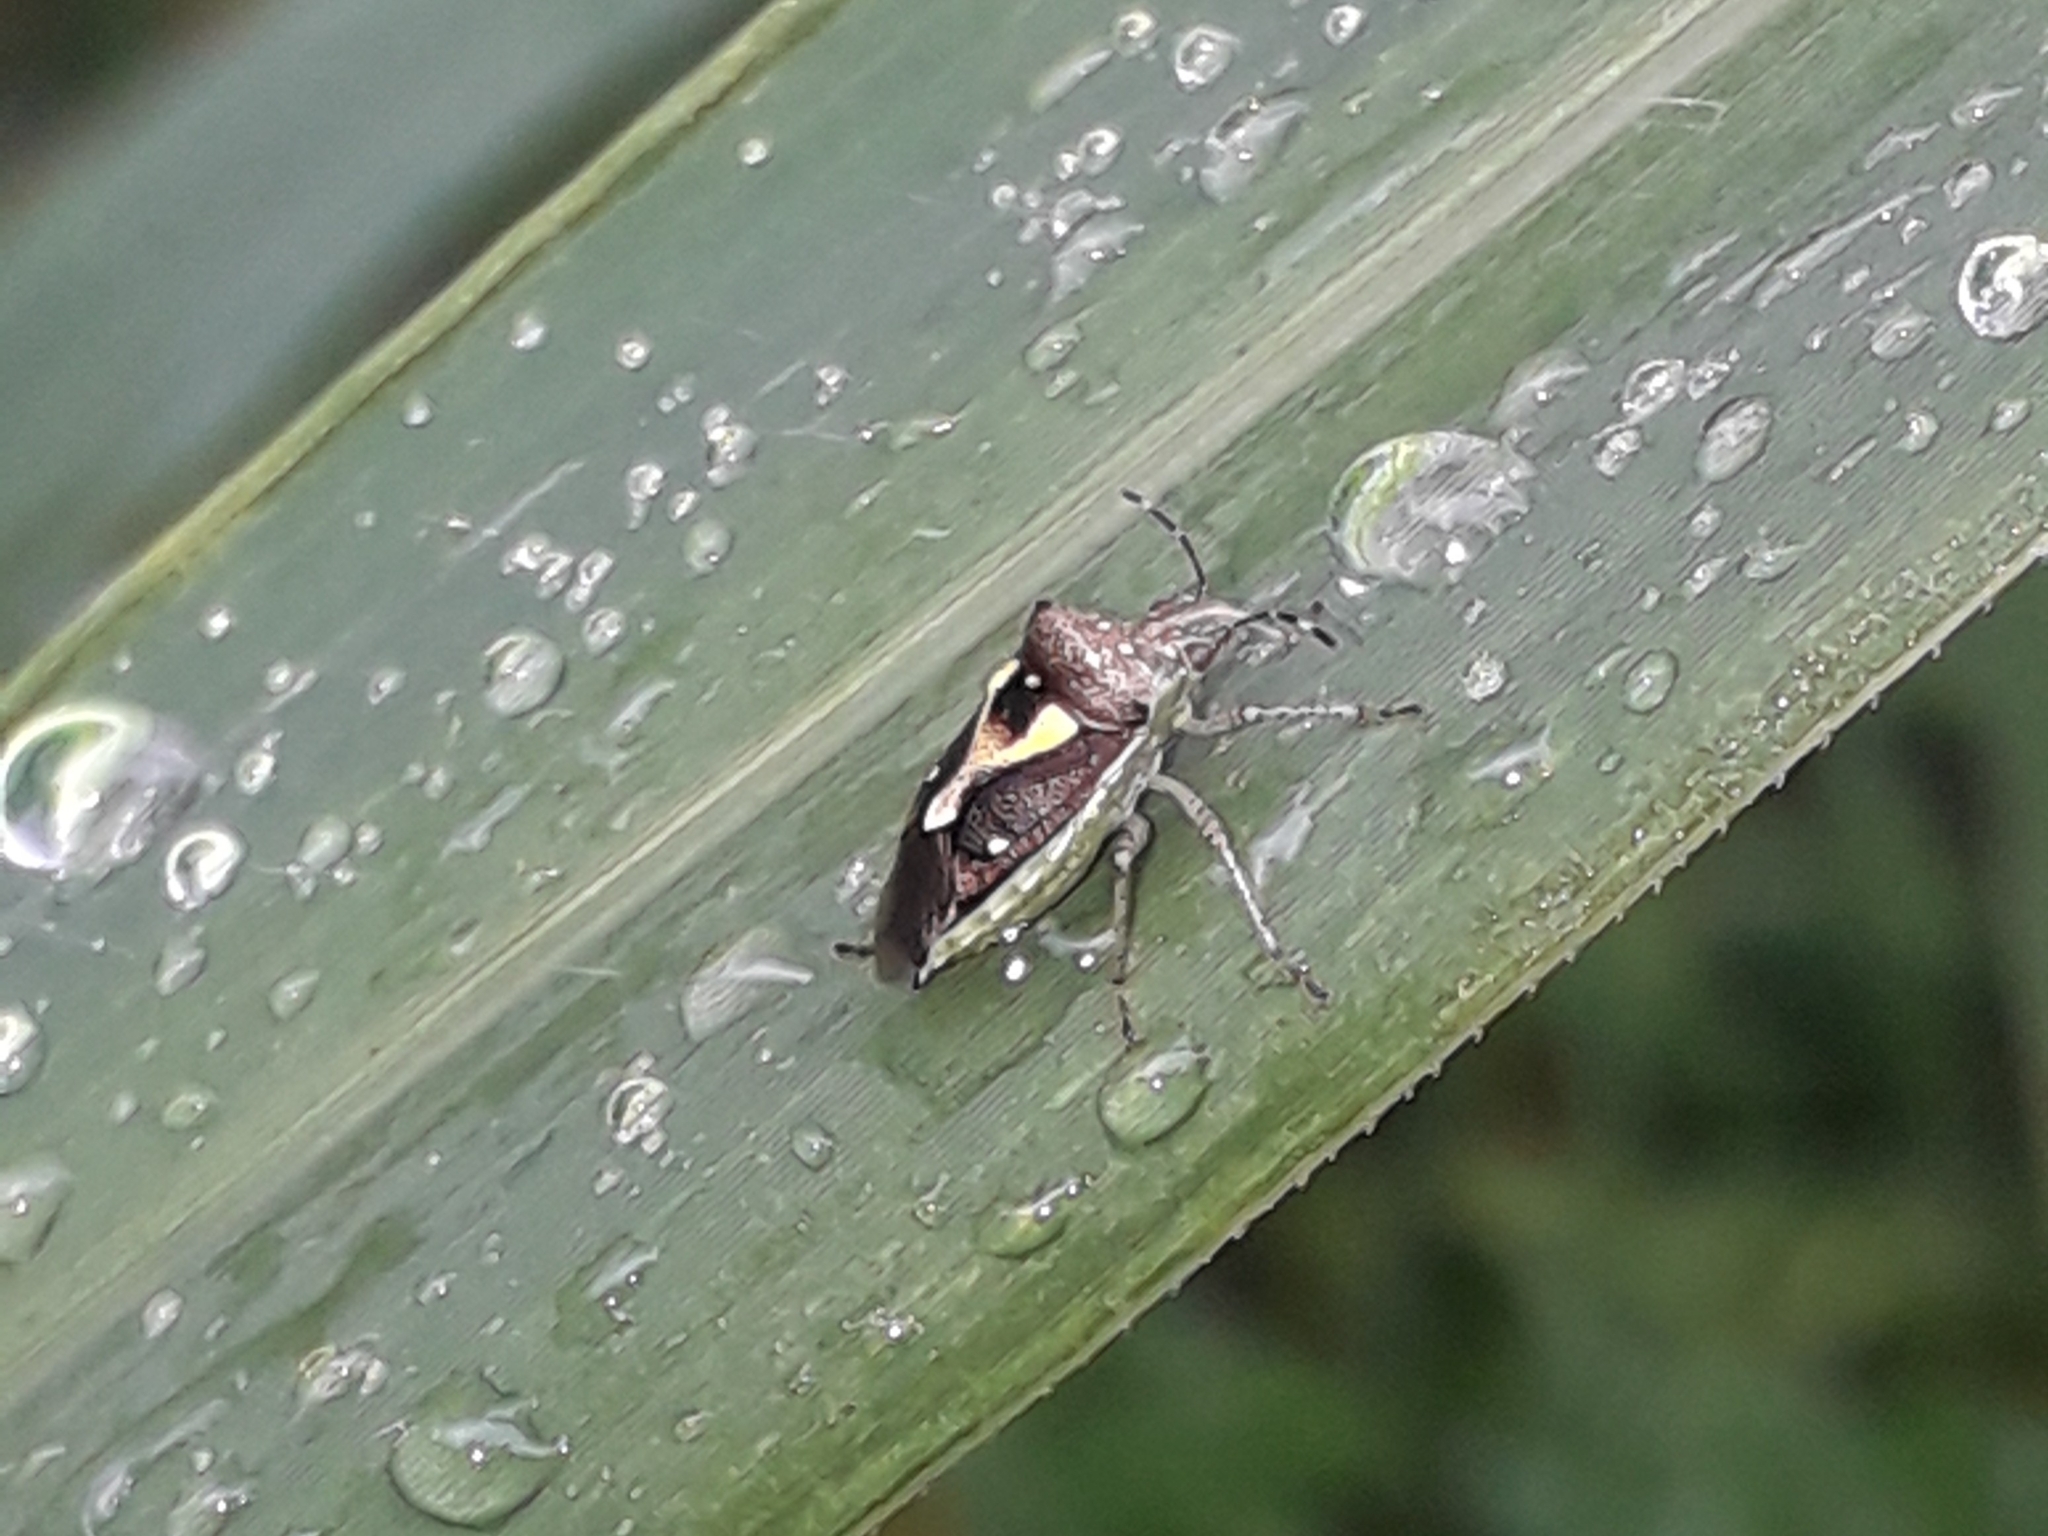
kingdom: Animalia
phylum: Arthropoda
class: Insecta
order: Hemiptera
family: Pentatomidae
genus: Mormidea
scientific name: Mormidea ypsilon
